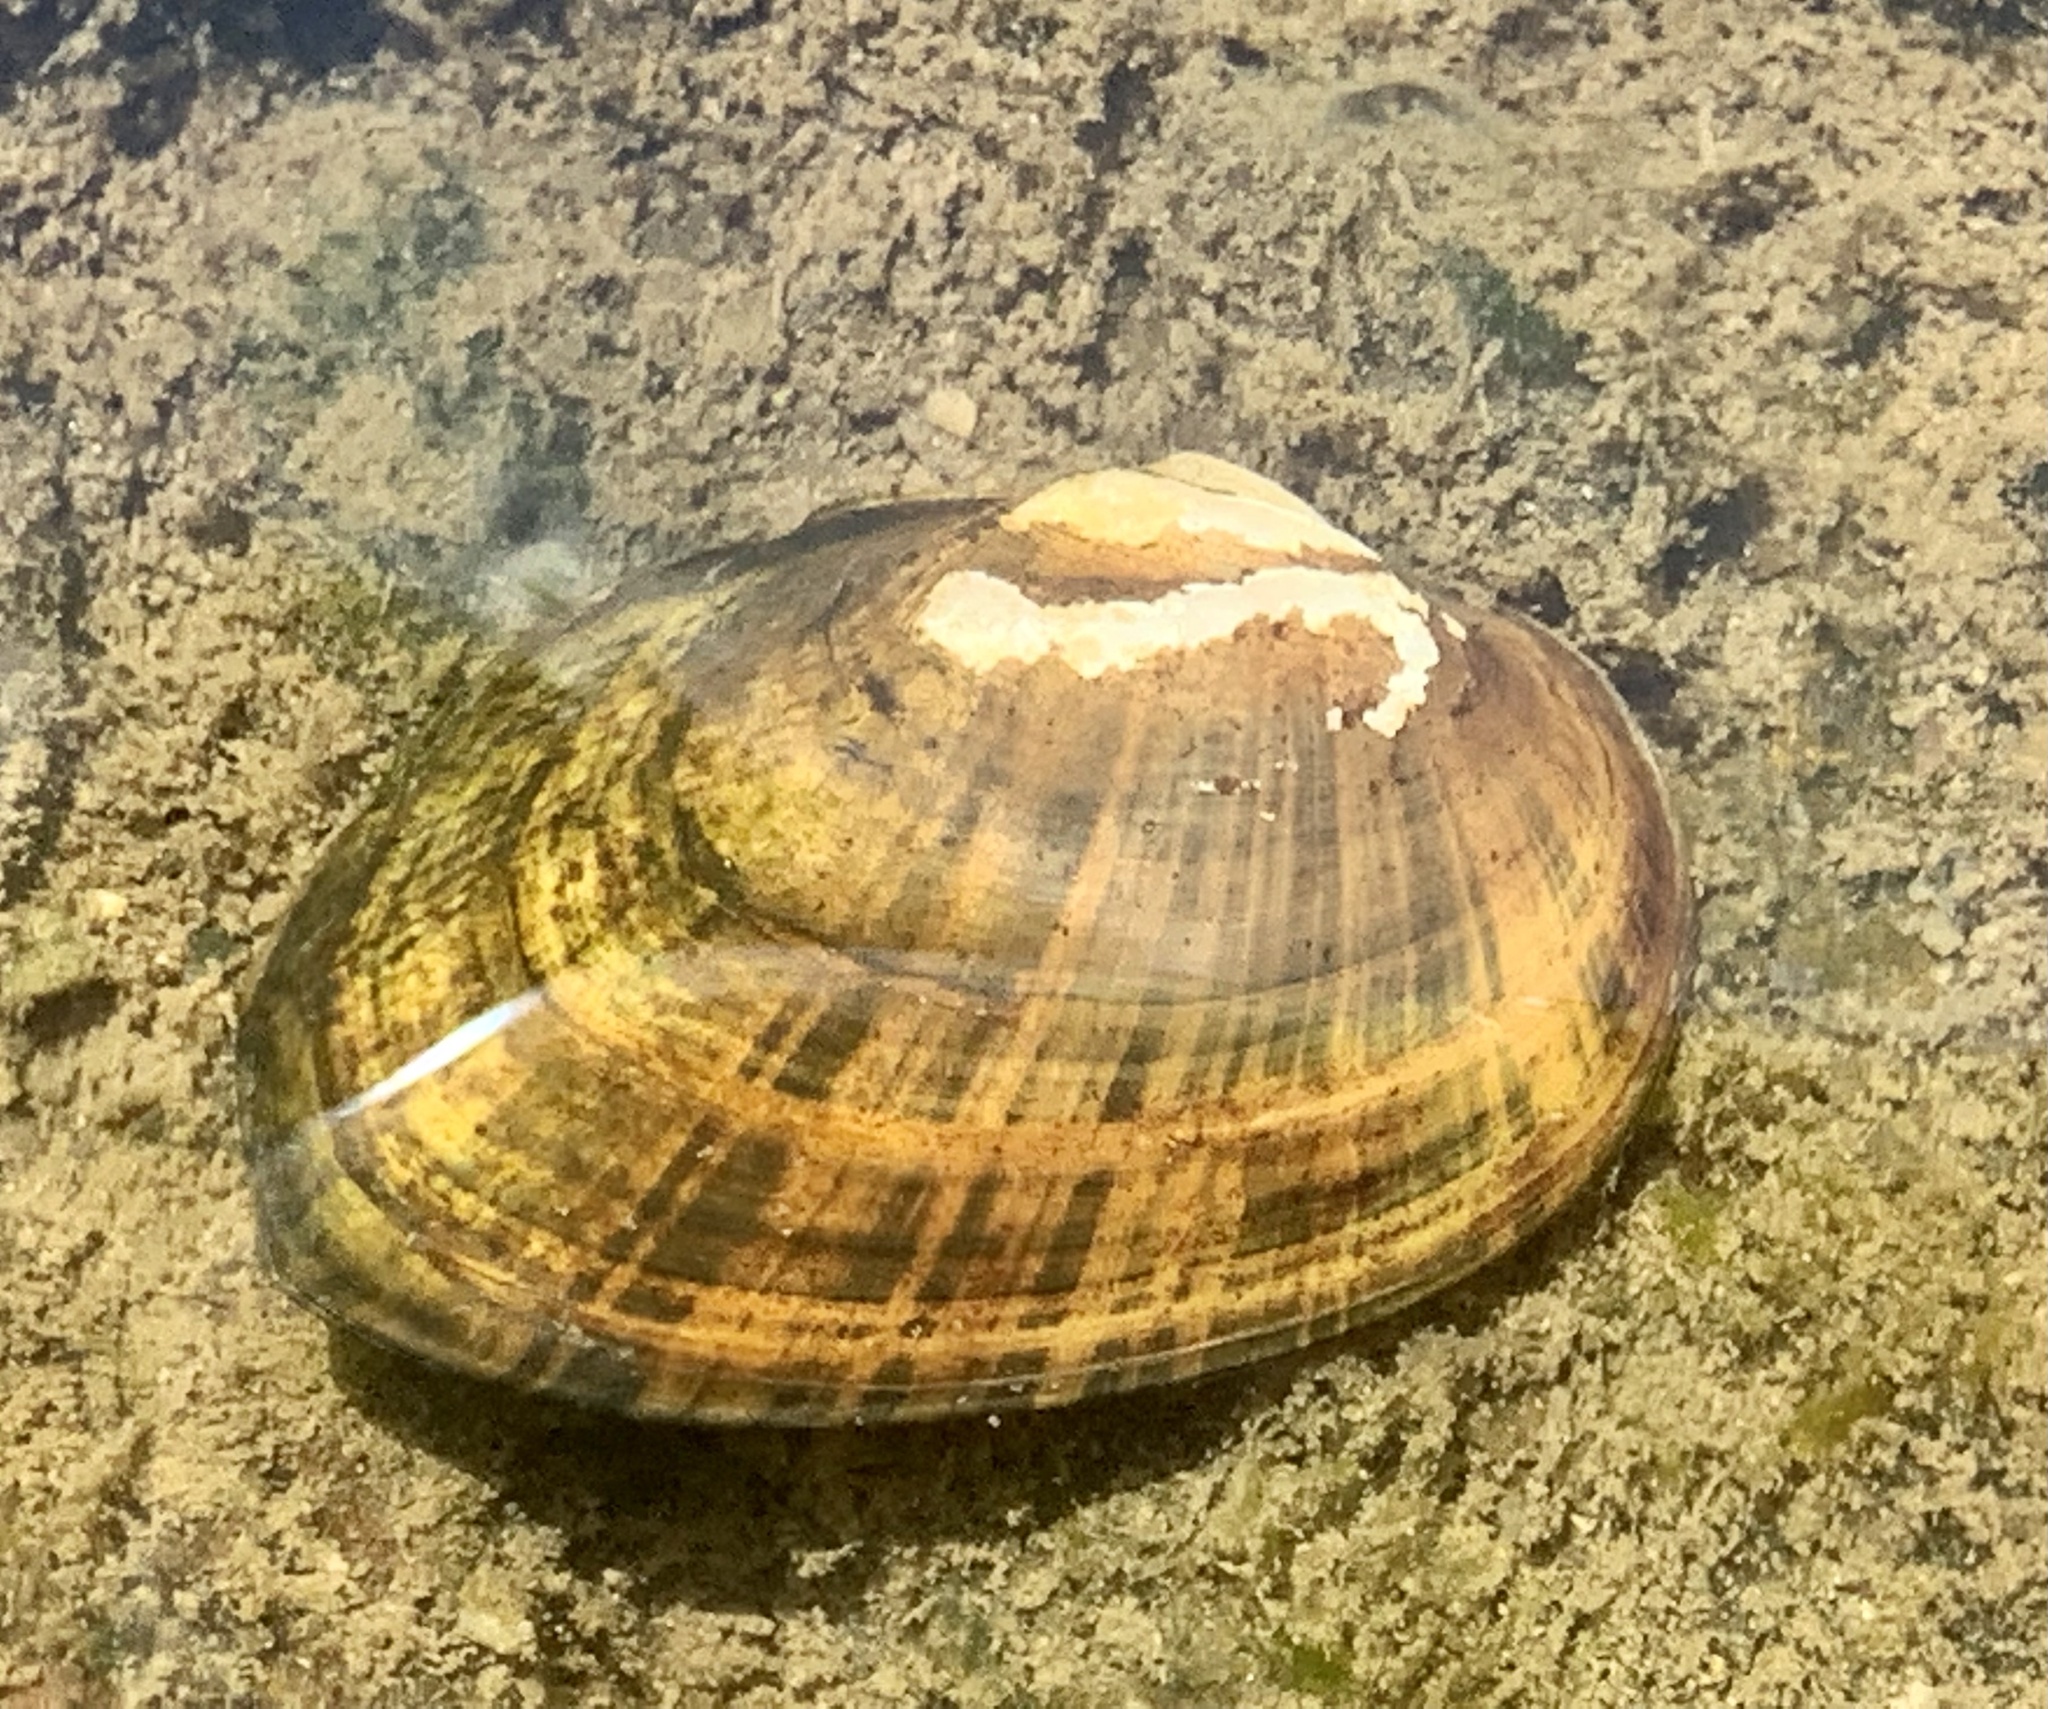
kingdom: Animalia
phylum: Mollusca
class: Bivalvia
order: Unionida
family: Unionidae
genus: Alasmidonta
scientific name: Alasmidonta undulata
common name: Triangle floater
